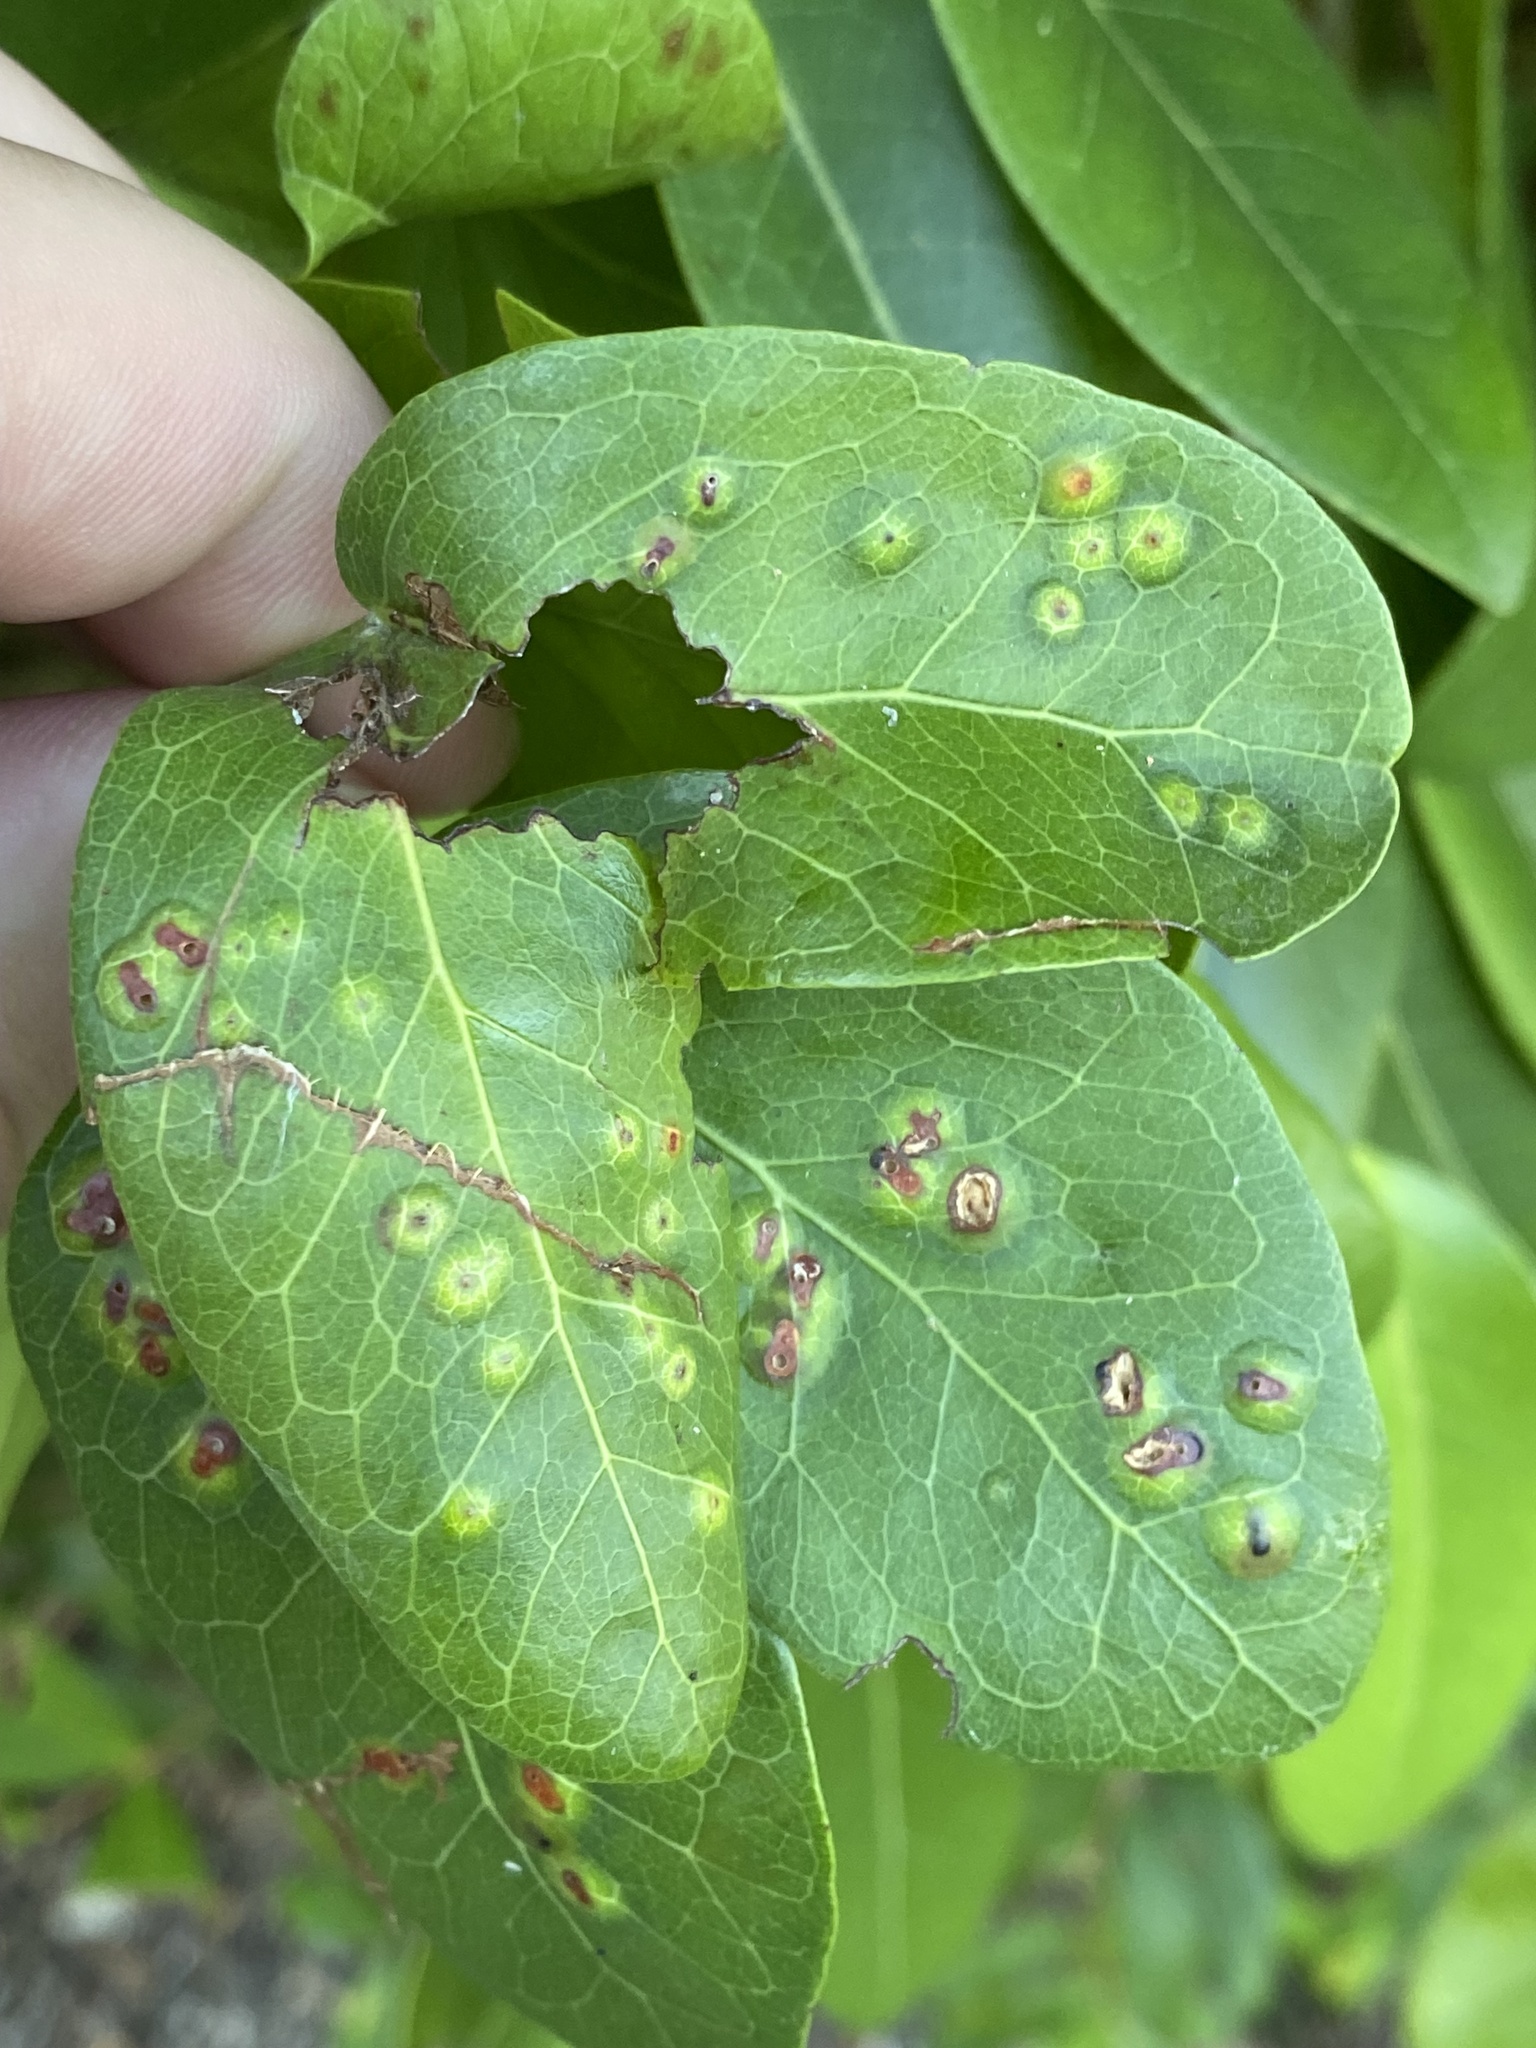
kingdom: Animalia
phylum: Arthropoda
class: Insecta
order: Hymenoptera
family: Tanaostigmatidae
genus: Tanaostigmodes
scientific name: Tanaostigmodes pithecellobiae
